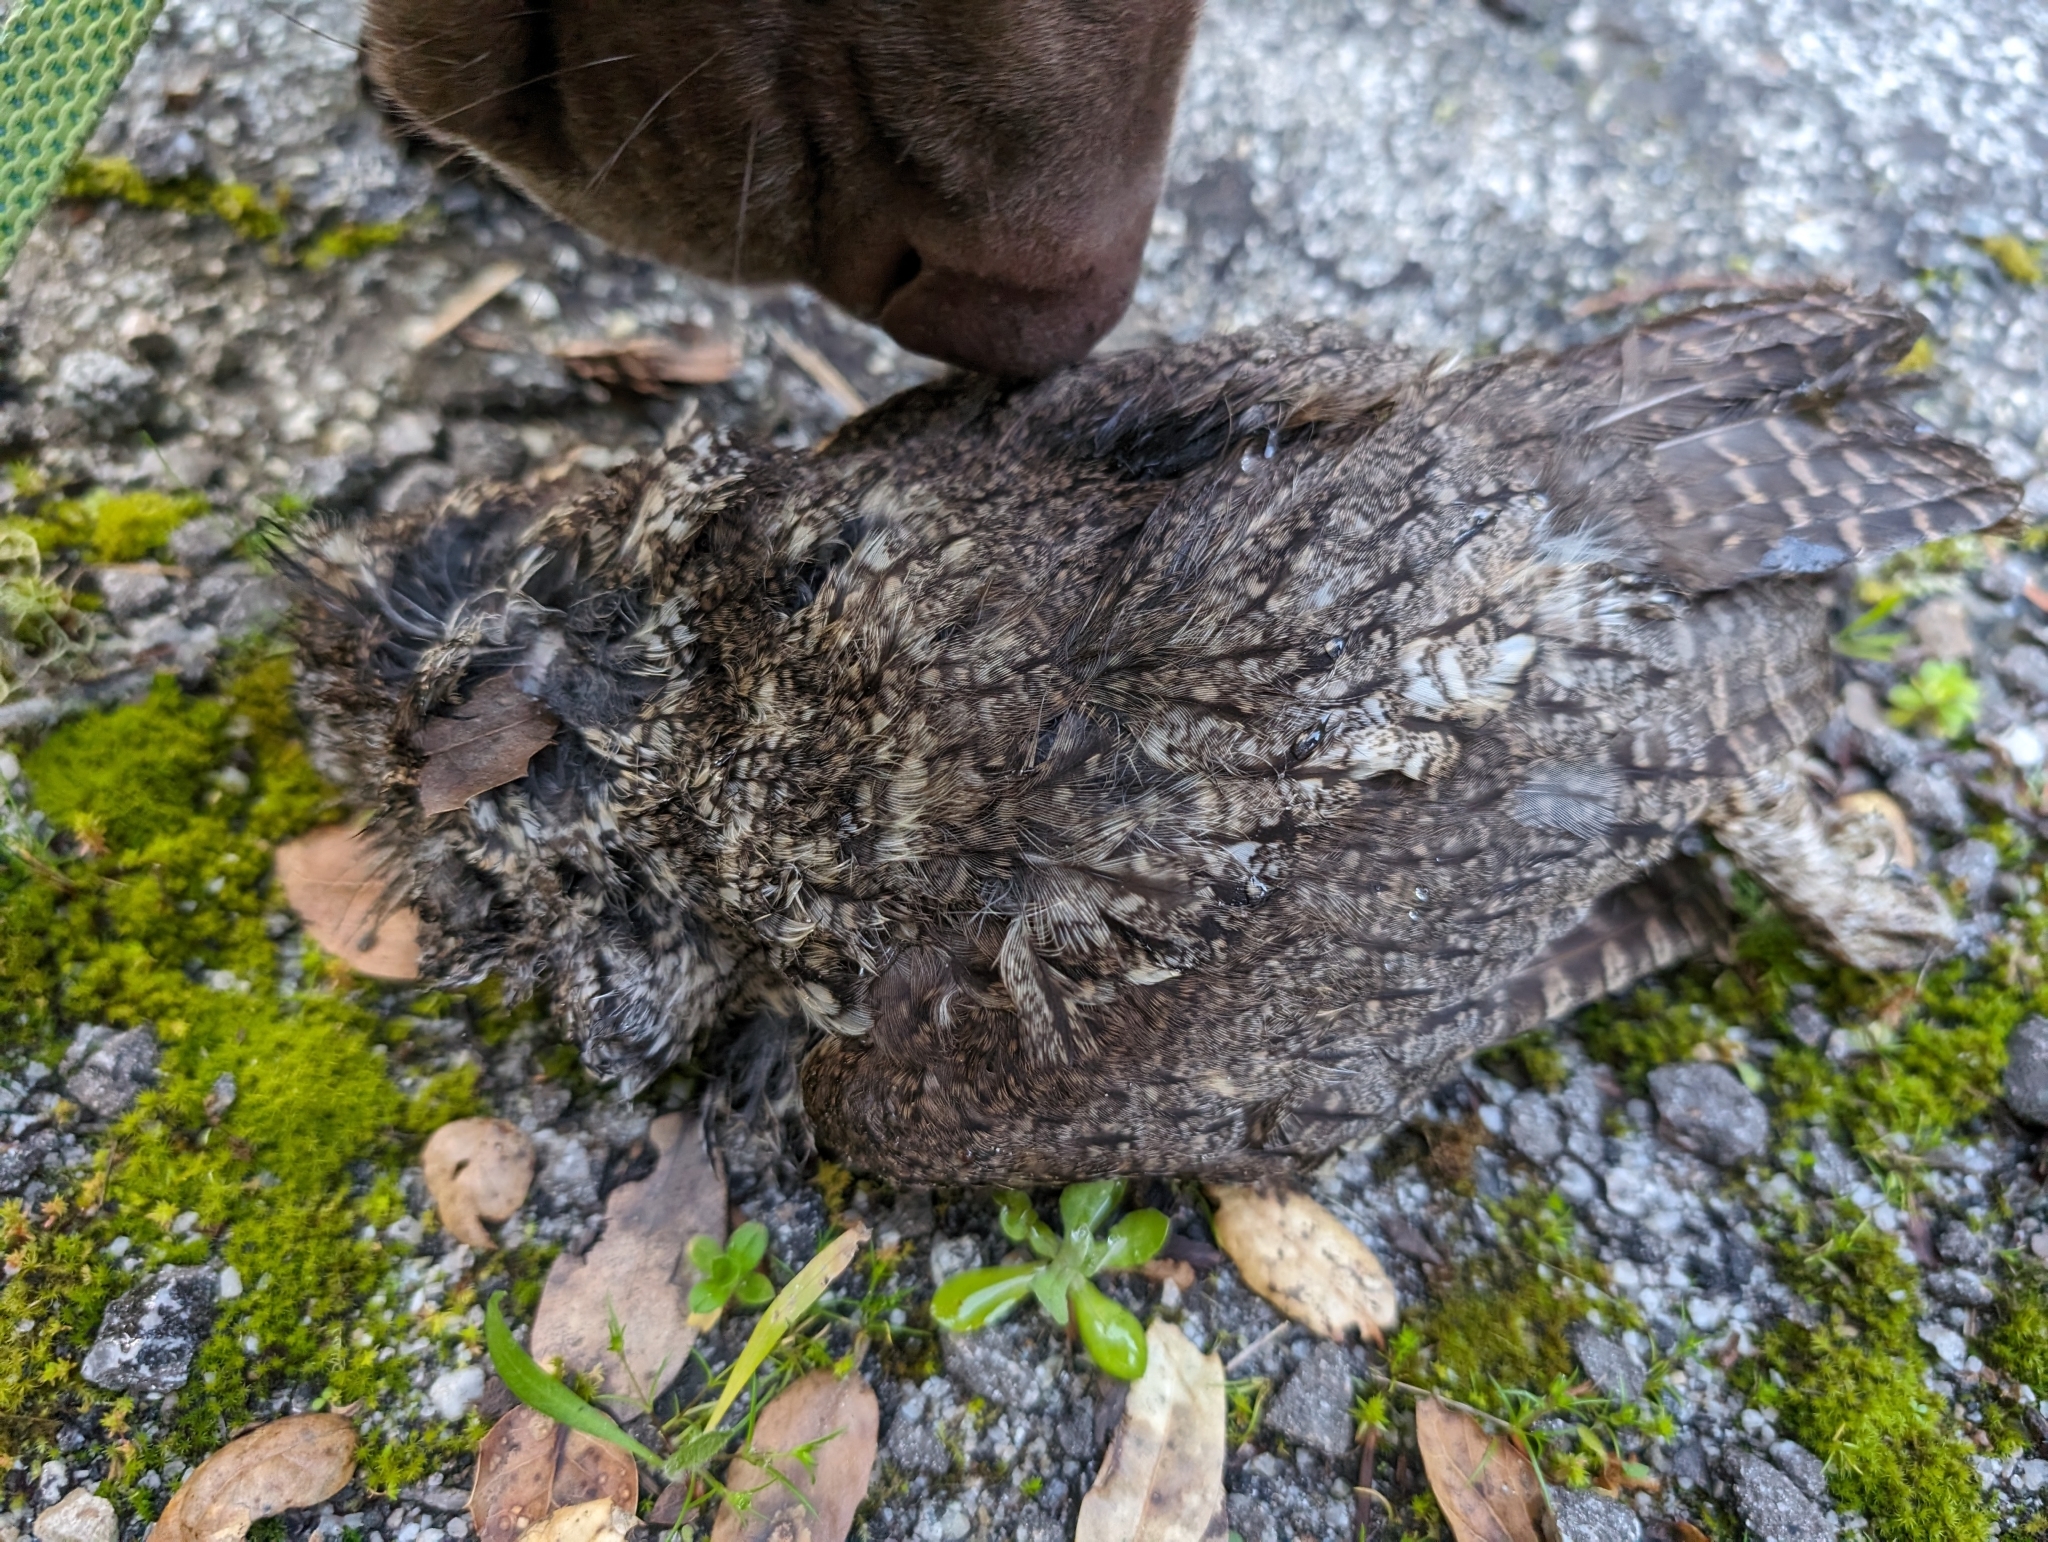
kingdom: Animalia
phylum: Chordata
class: Aves
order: Strigiformes
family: Strigidae
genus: Megascops
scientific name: Megascops kennicottii
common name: Western screech-owl
